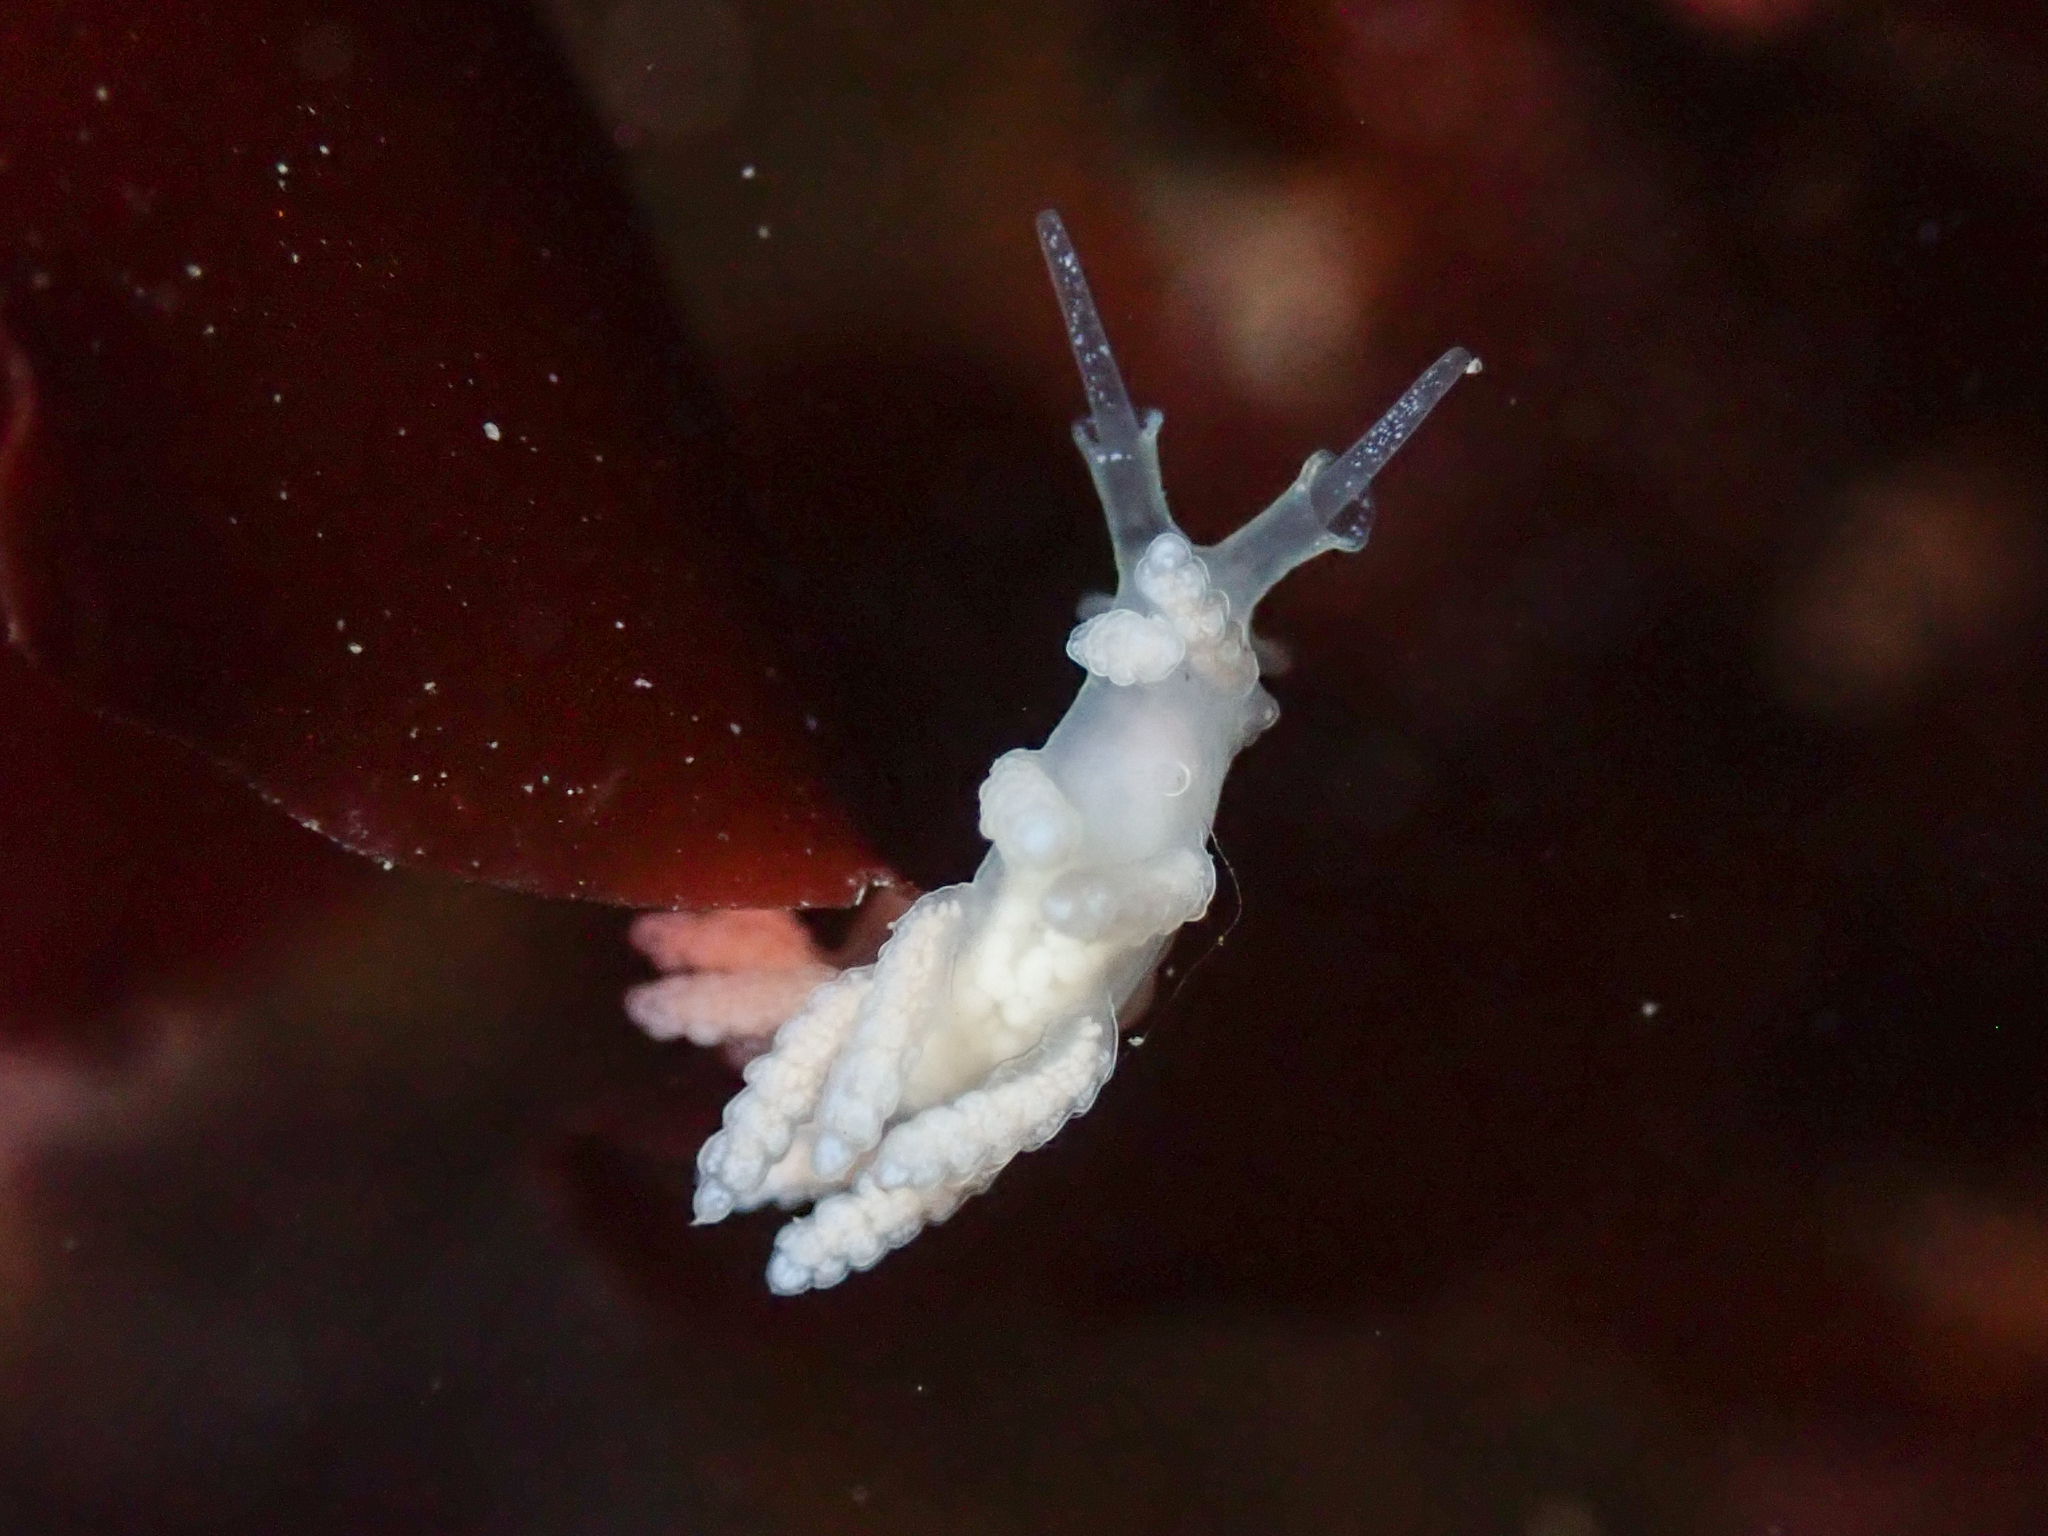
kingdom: Animalia
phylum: Mollusca
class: Gastropoda
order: Nudibranchia
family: Dotidae
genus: Doto
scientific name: Doto amyra
